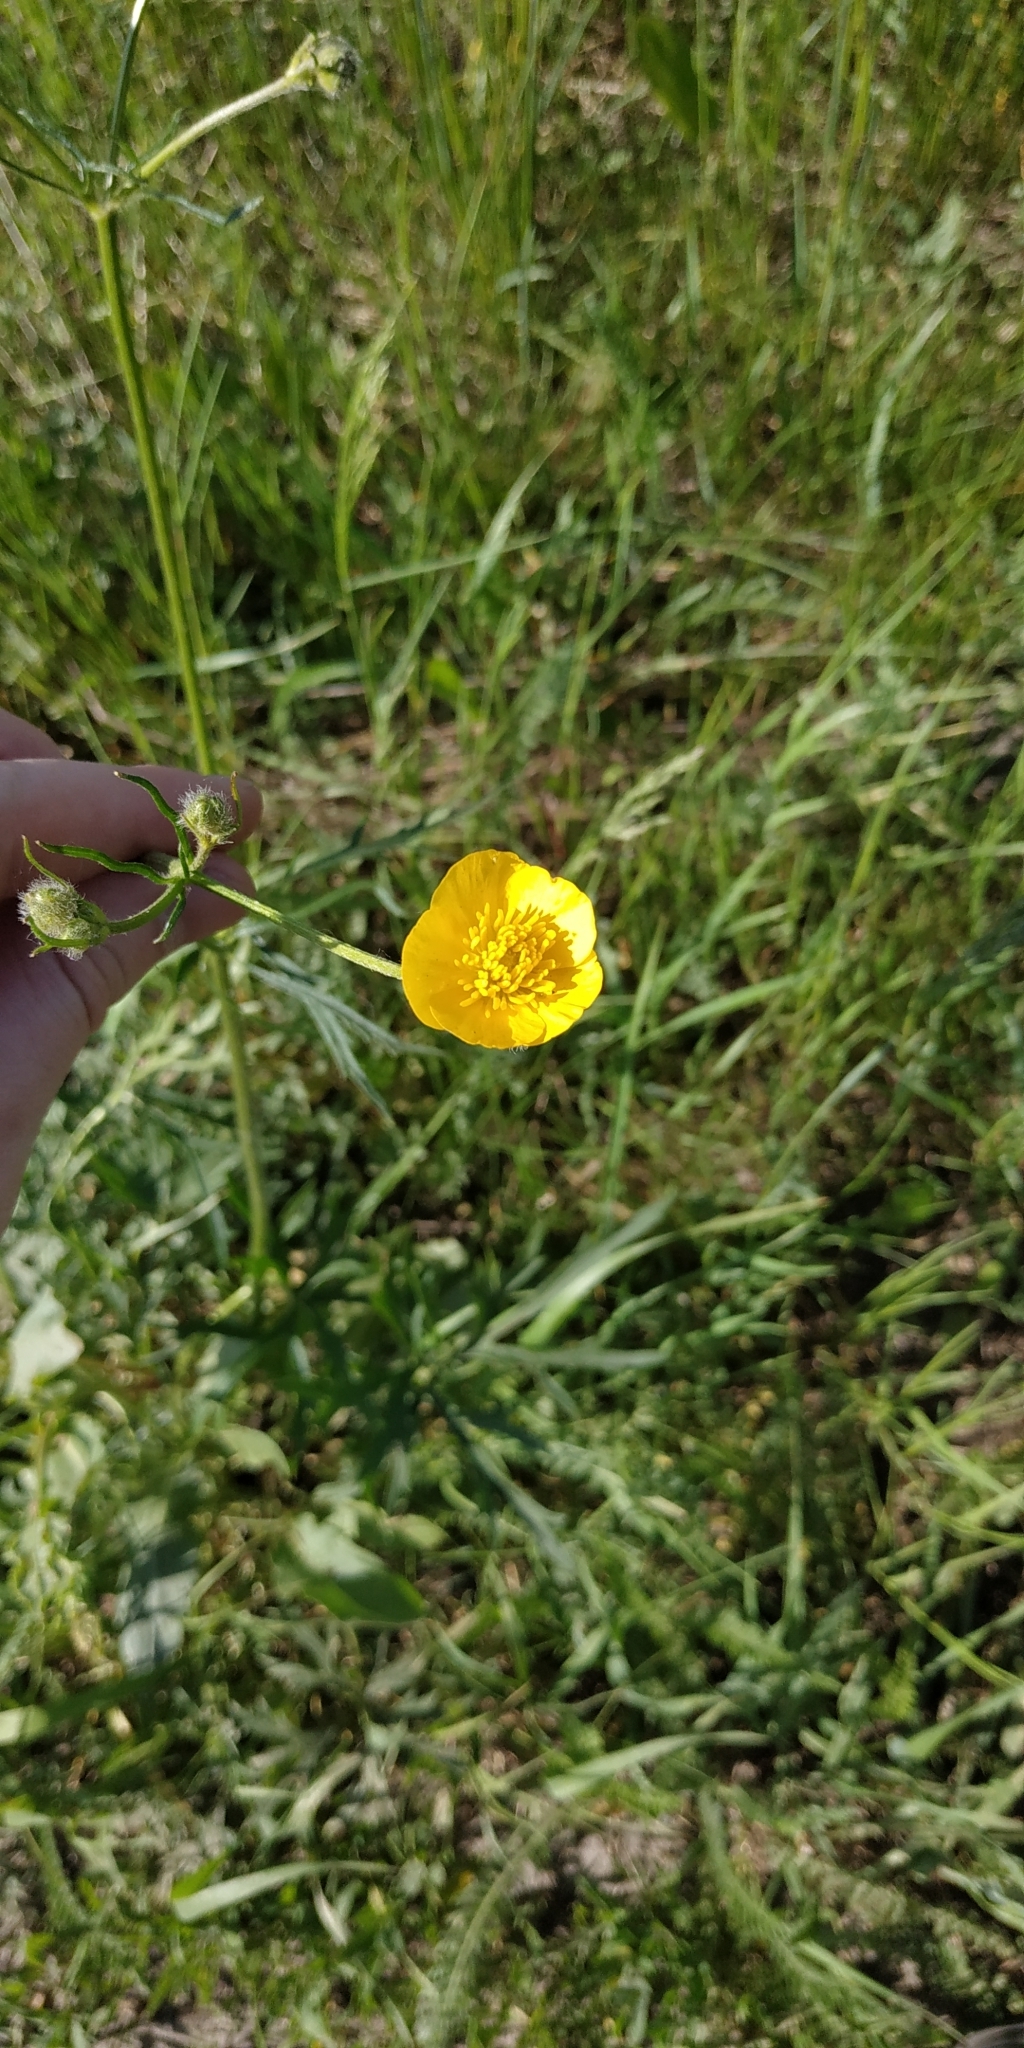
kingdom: Plantae
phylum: Tracheophyta
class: Magnoliopsida
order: Ranunculales
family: Ranunculaceae
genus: Ranunculus
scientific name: Ranunculus polyanthemos
